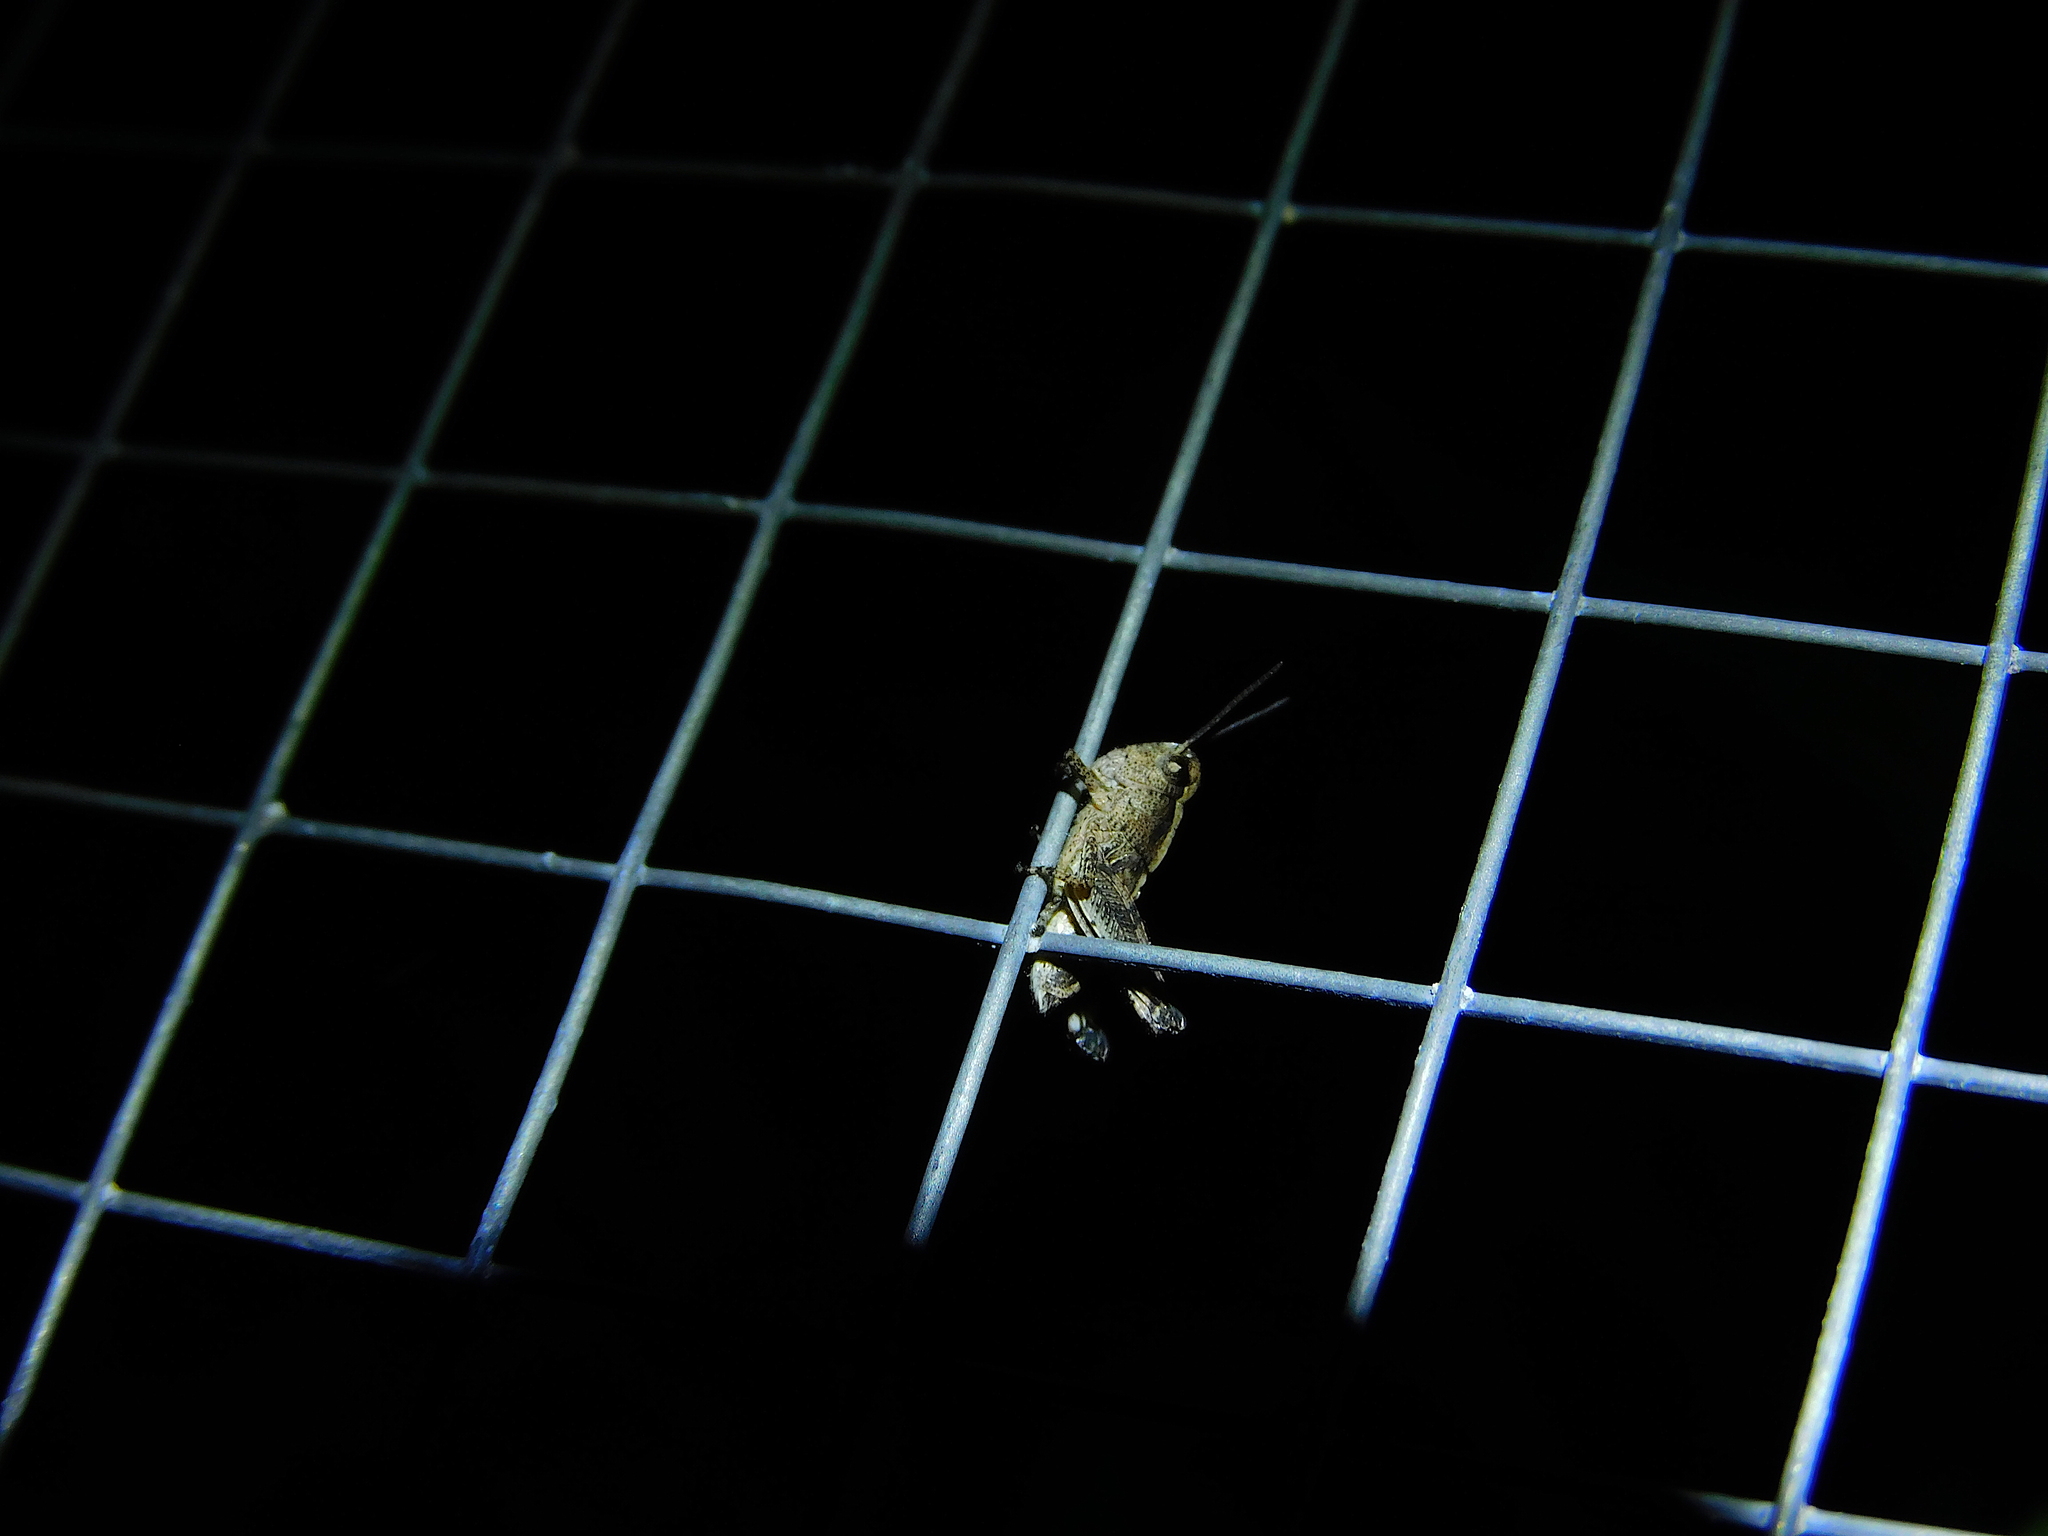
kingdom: Animalia
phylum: Arthropoda
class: Insecta
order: Orthoptera
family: Acrididae
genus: Cryptobothrus
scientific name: Cryptobothrus chrysophorus
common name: Golden bandwing
